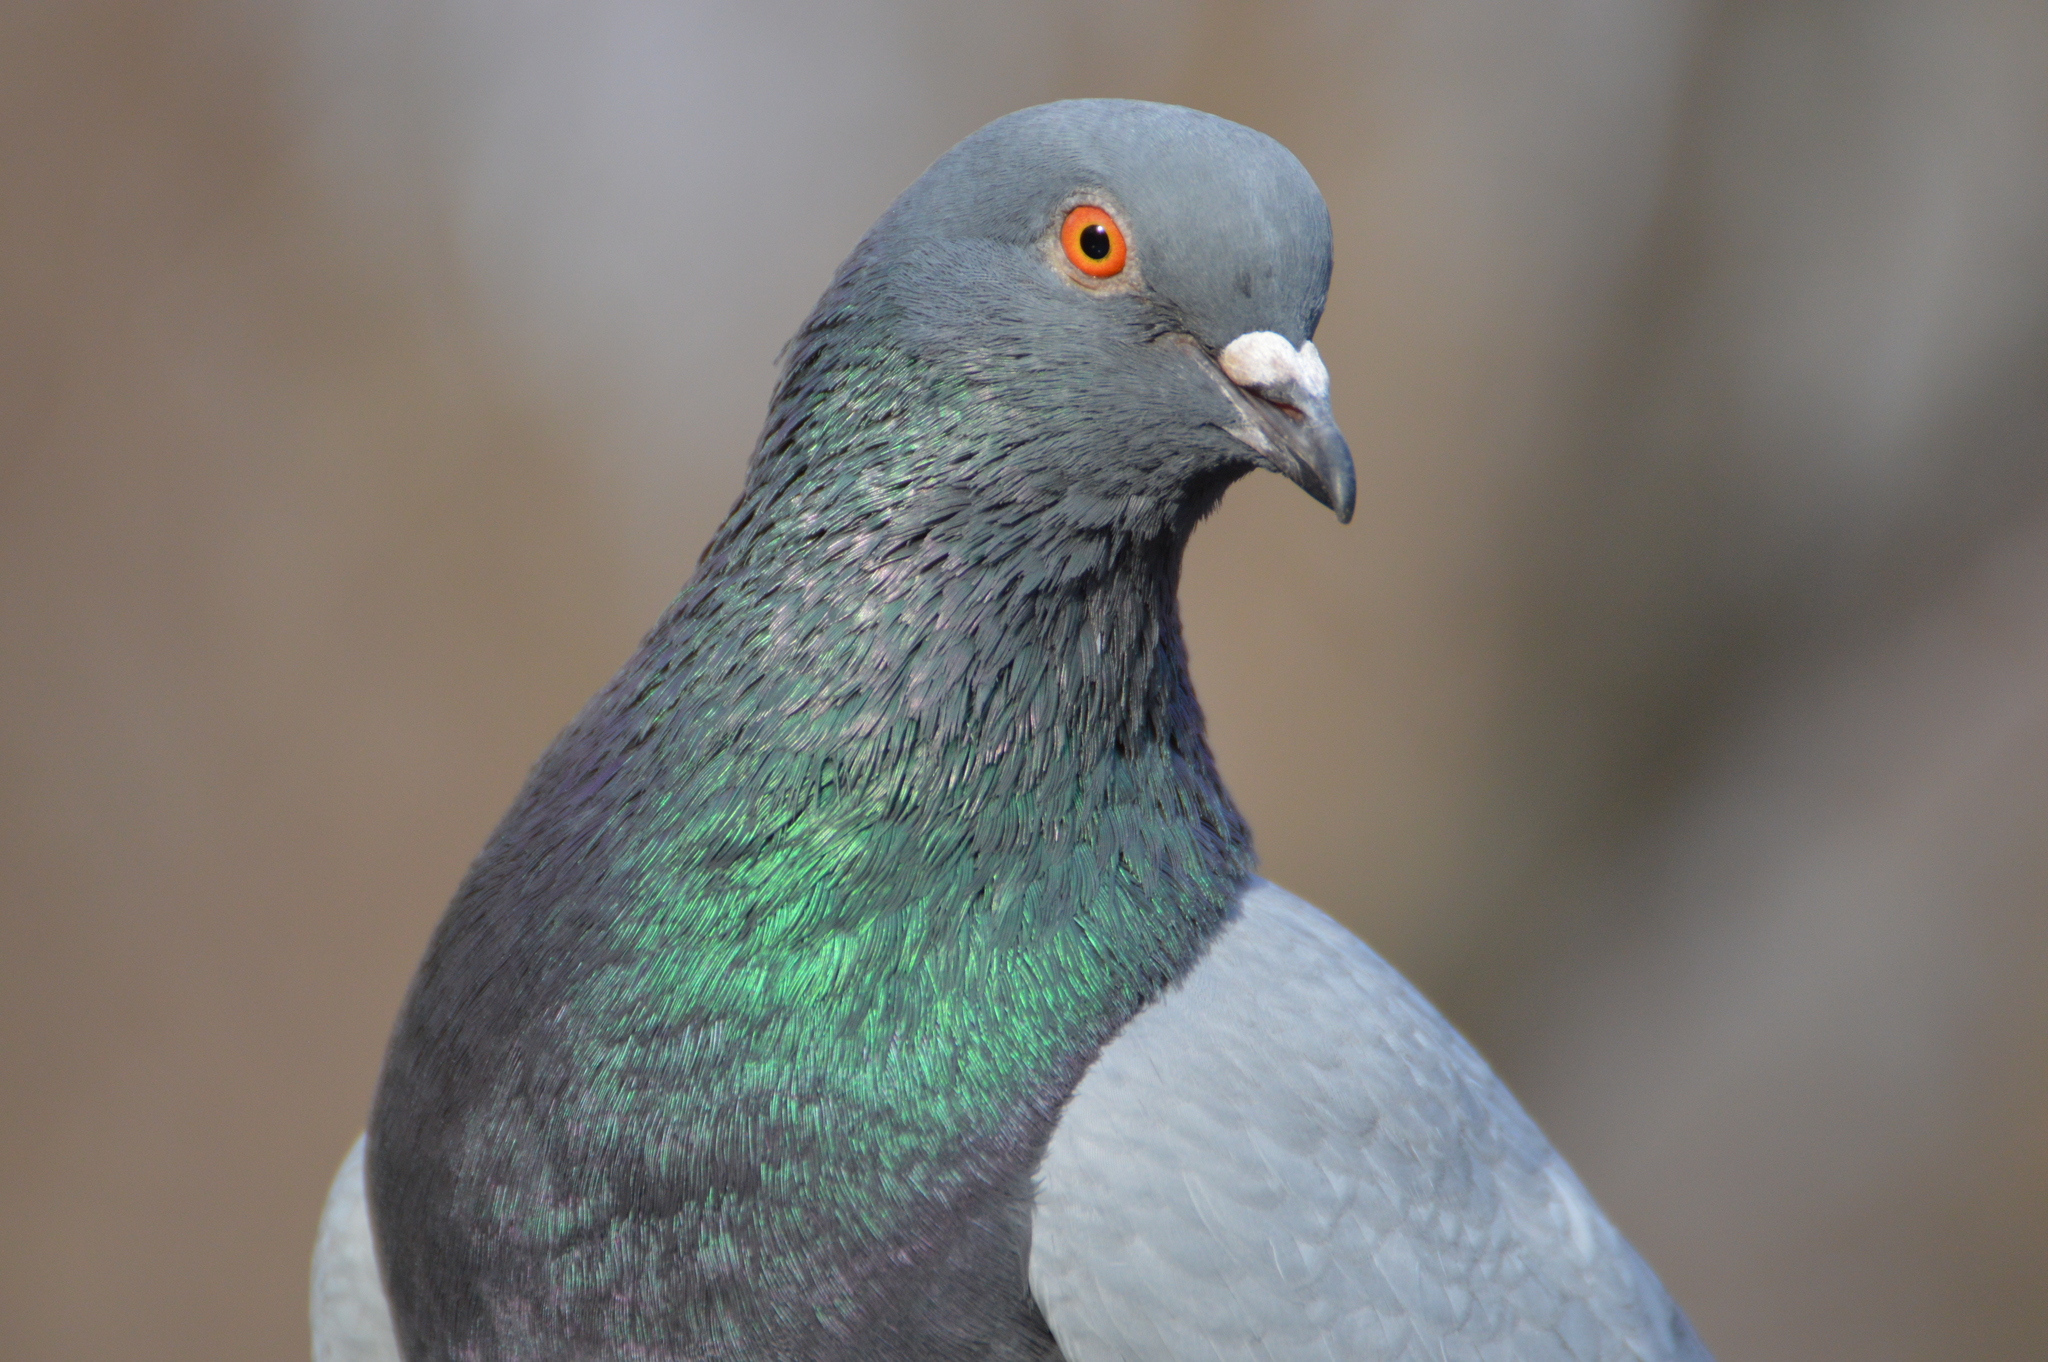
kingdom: Animalia
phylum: Chordata
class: Aves
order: Columbiformes
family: Columbidae
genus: Columba
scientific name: Columba livia
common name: Rock pigeon
